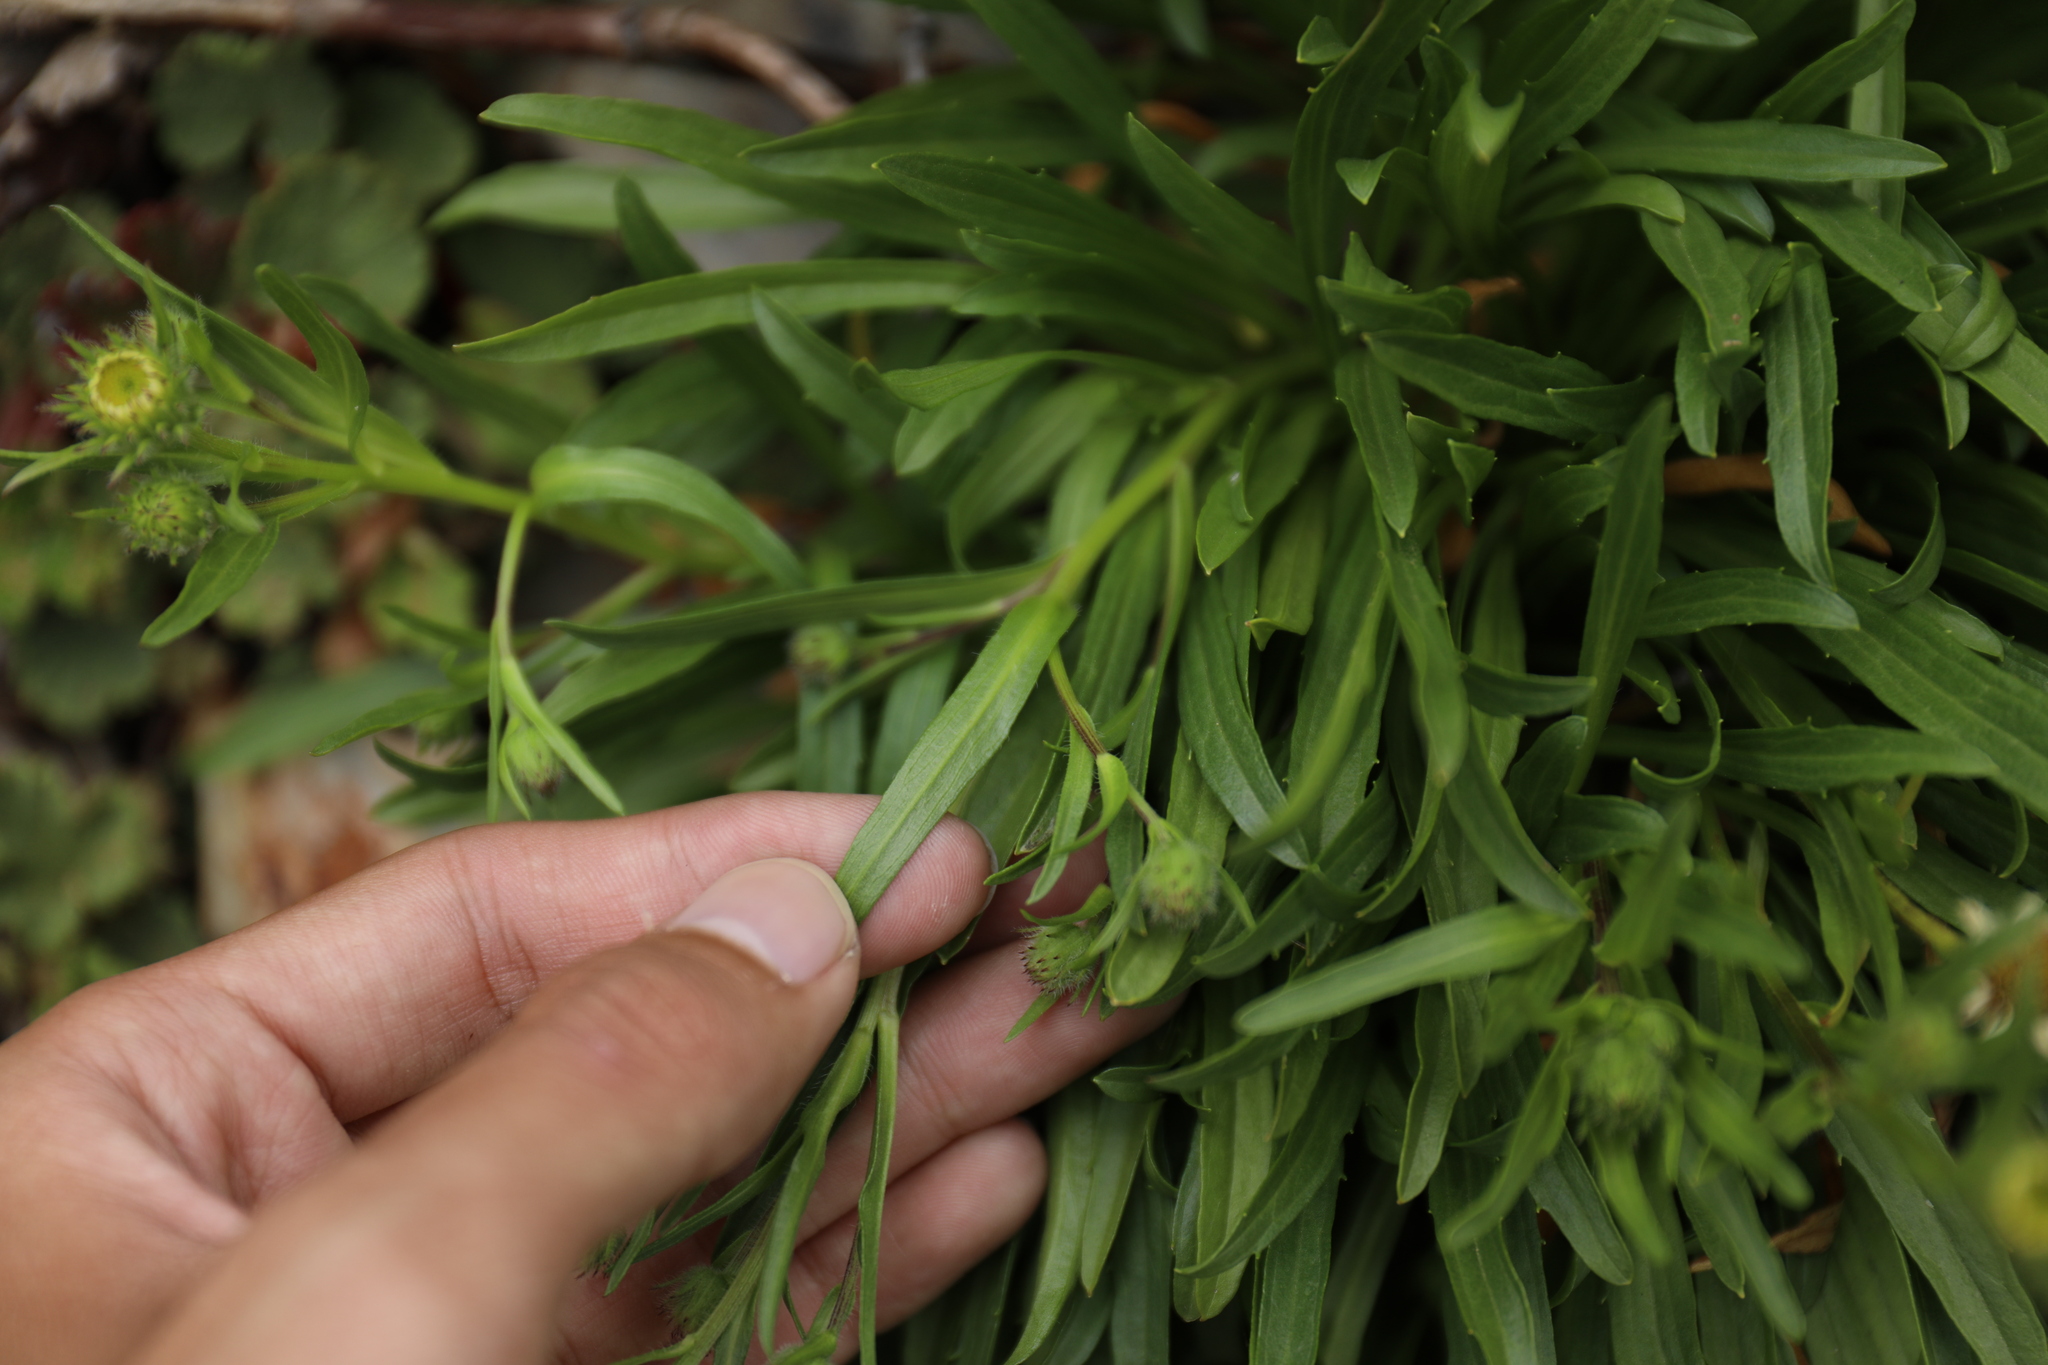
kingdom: Plantae
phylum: Tracheophyta
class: Magnoliopsida
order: Asterales
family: Asteraceae
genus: Erigeron
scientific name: Erigeron morrisonensis
